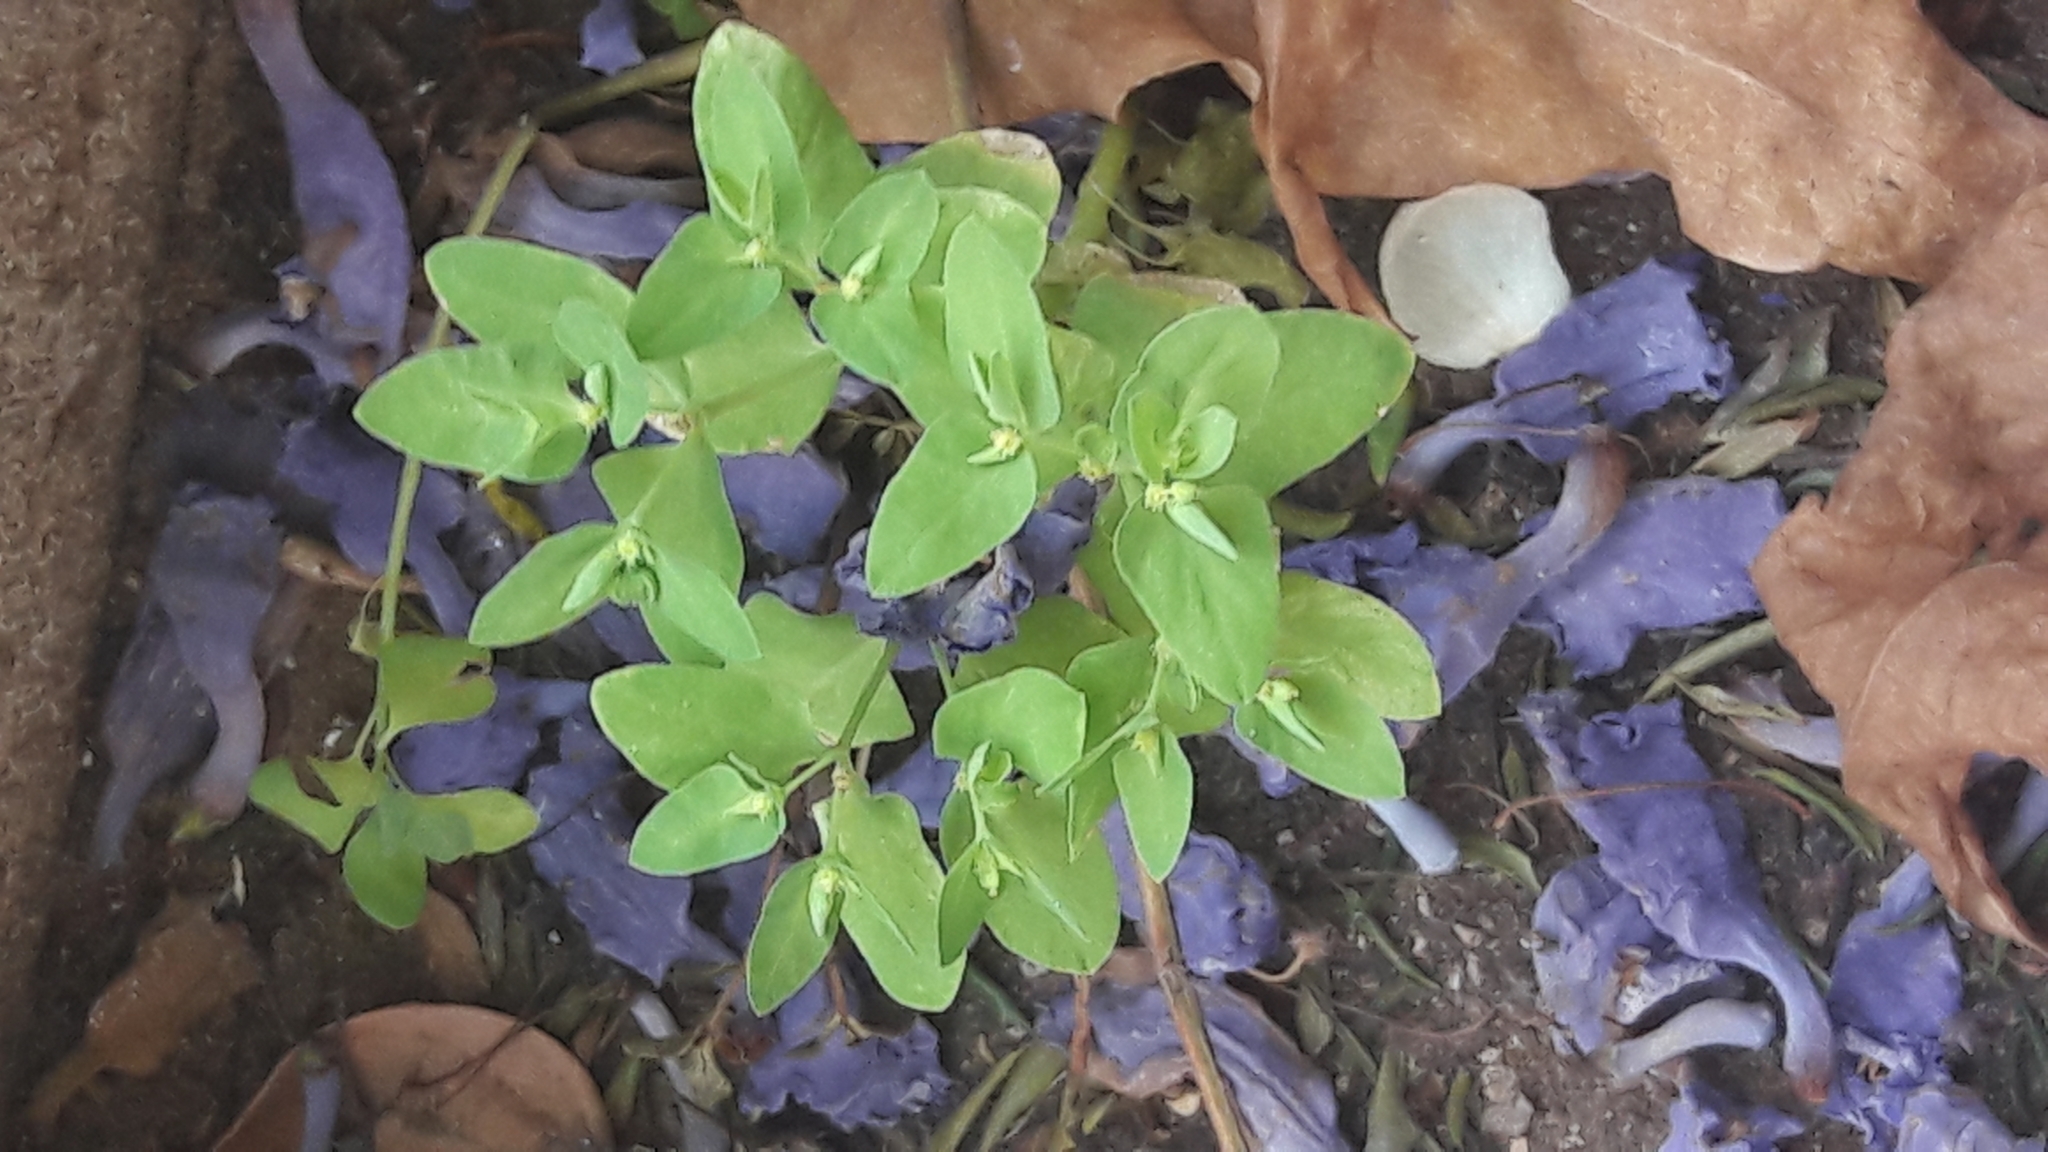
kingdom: Plantae
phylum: Tracheophyta
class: Magnoliopsida
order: Malpighiales
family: Euphorbiaceae
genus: Euphorbia
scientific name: Euphorbia peplus
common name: Petty spurge
